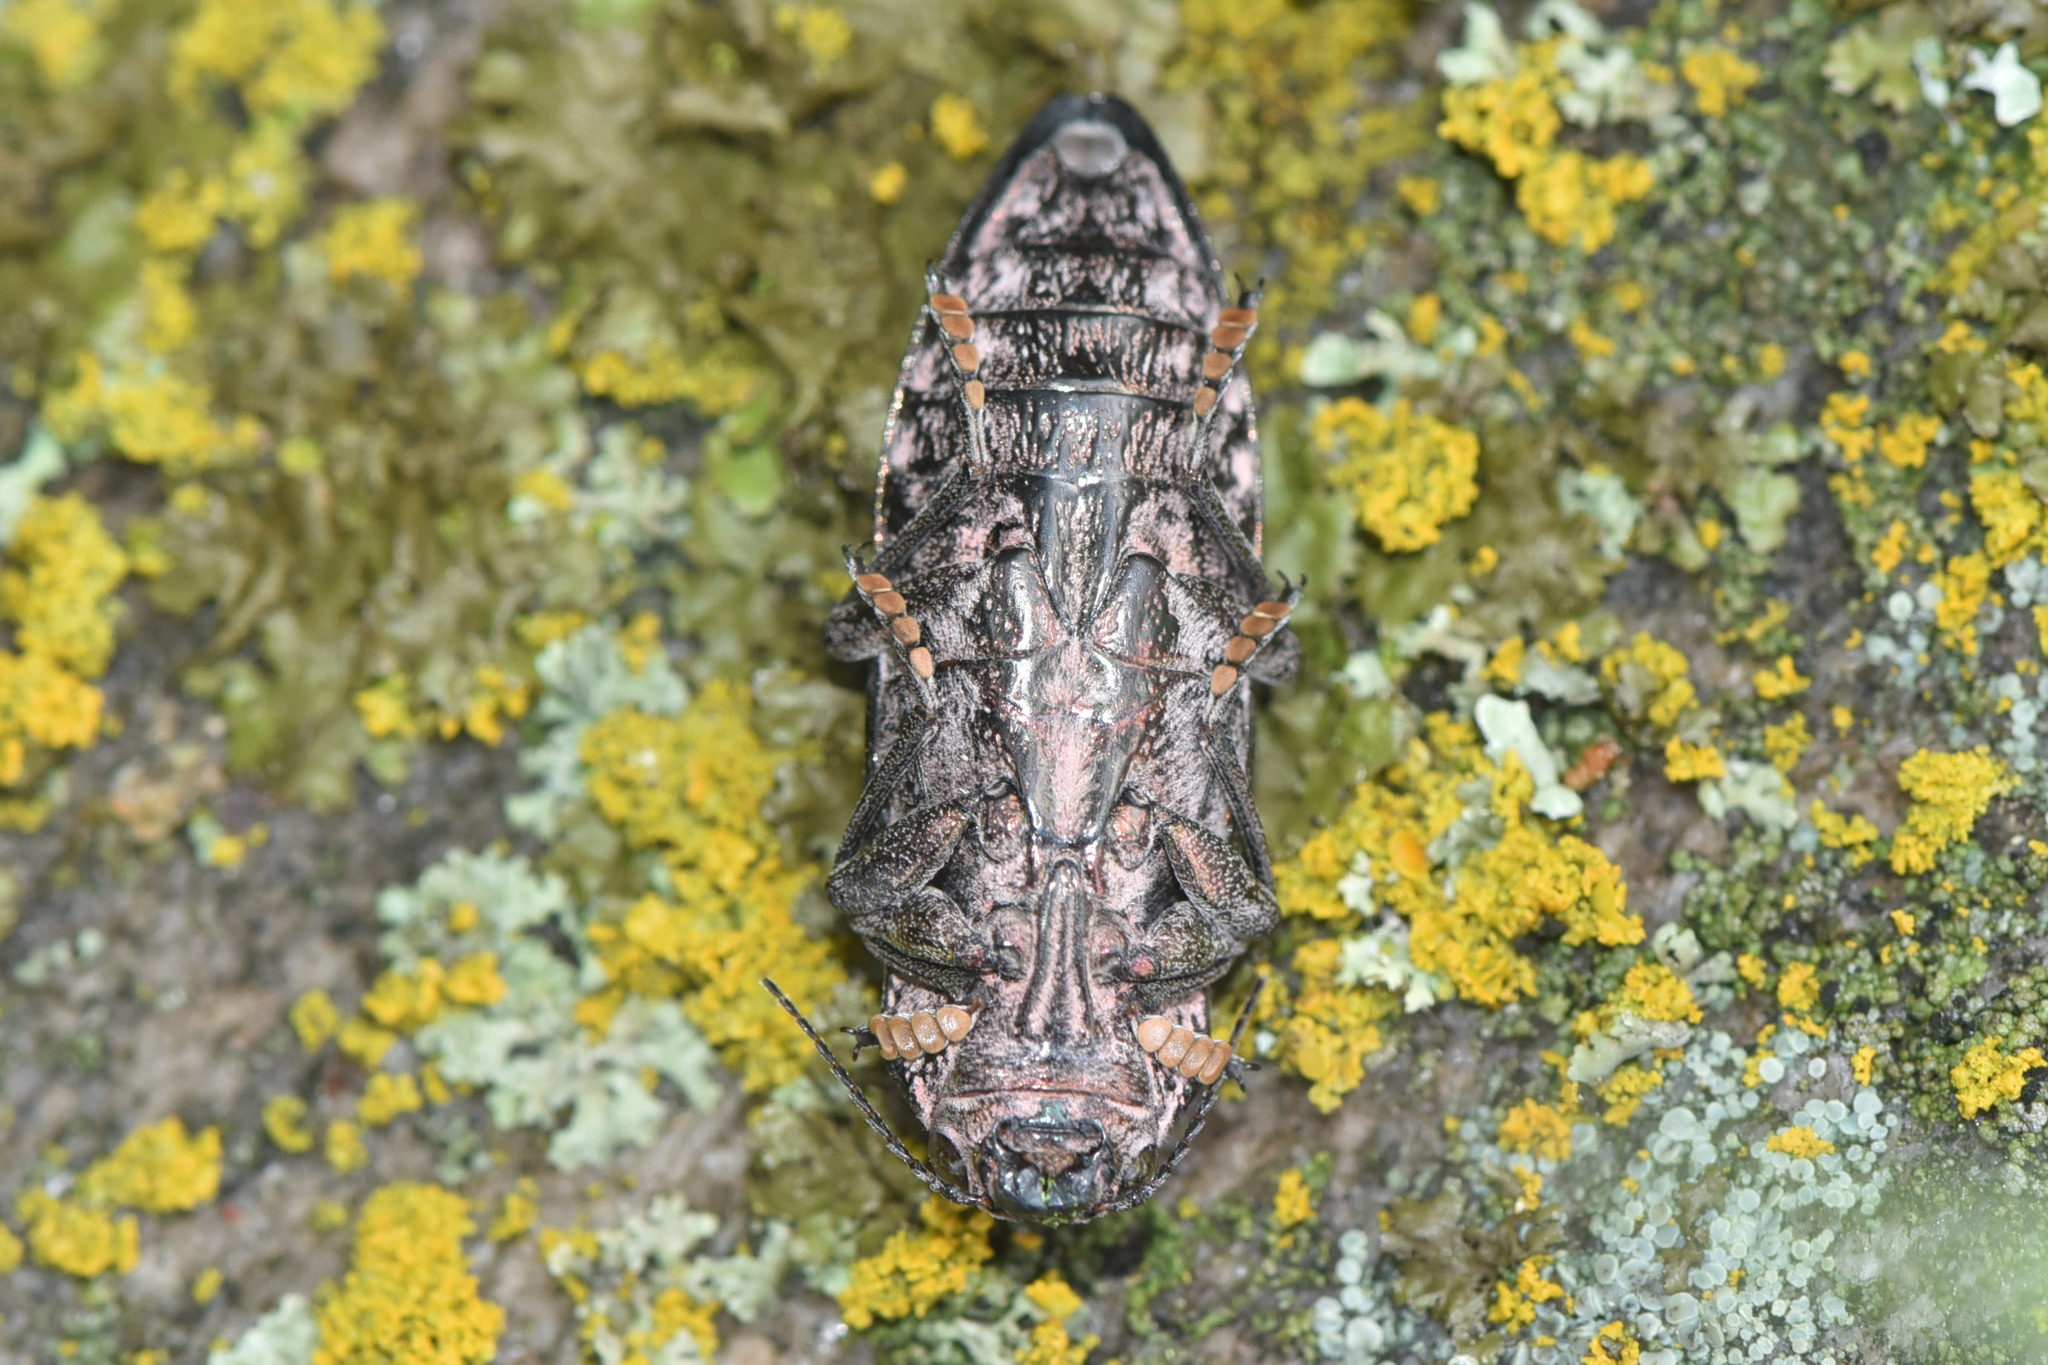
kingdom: Animalia
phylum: Arthropoda
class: Insecta
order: Coleoptera
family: Buprestidae
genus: Chalcophora
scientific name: Chalcophora angulicollis
